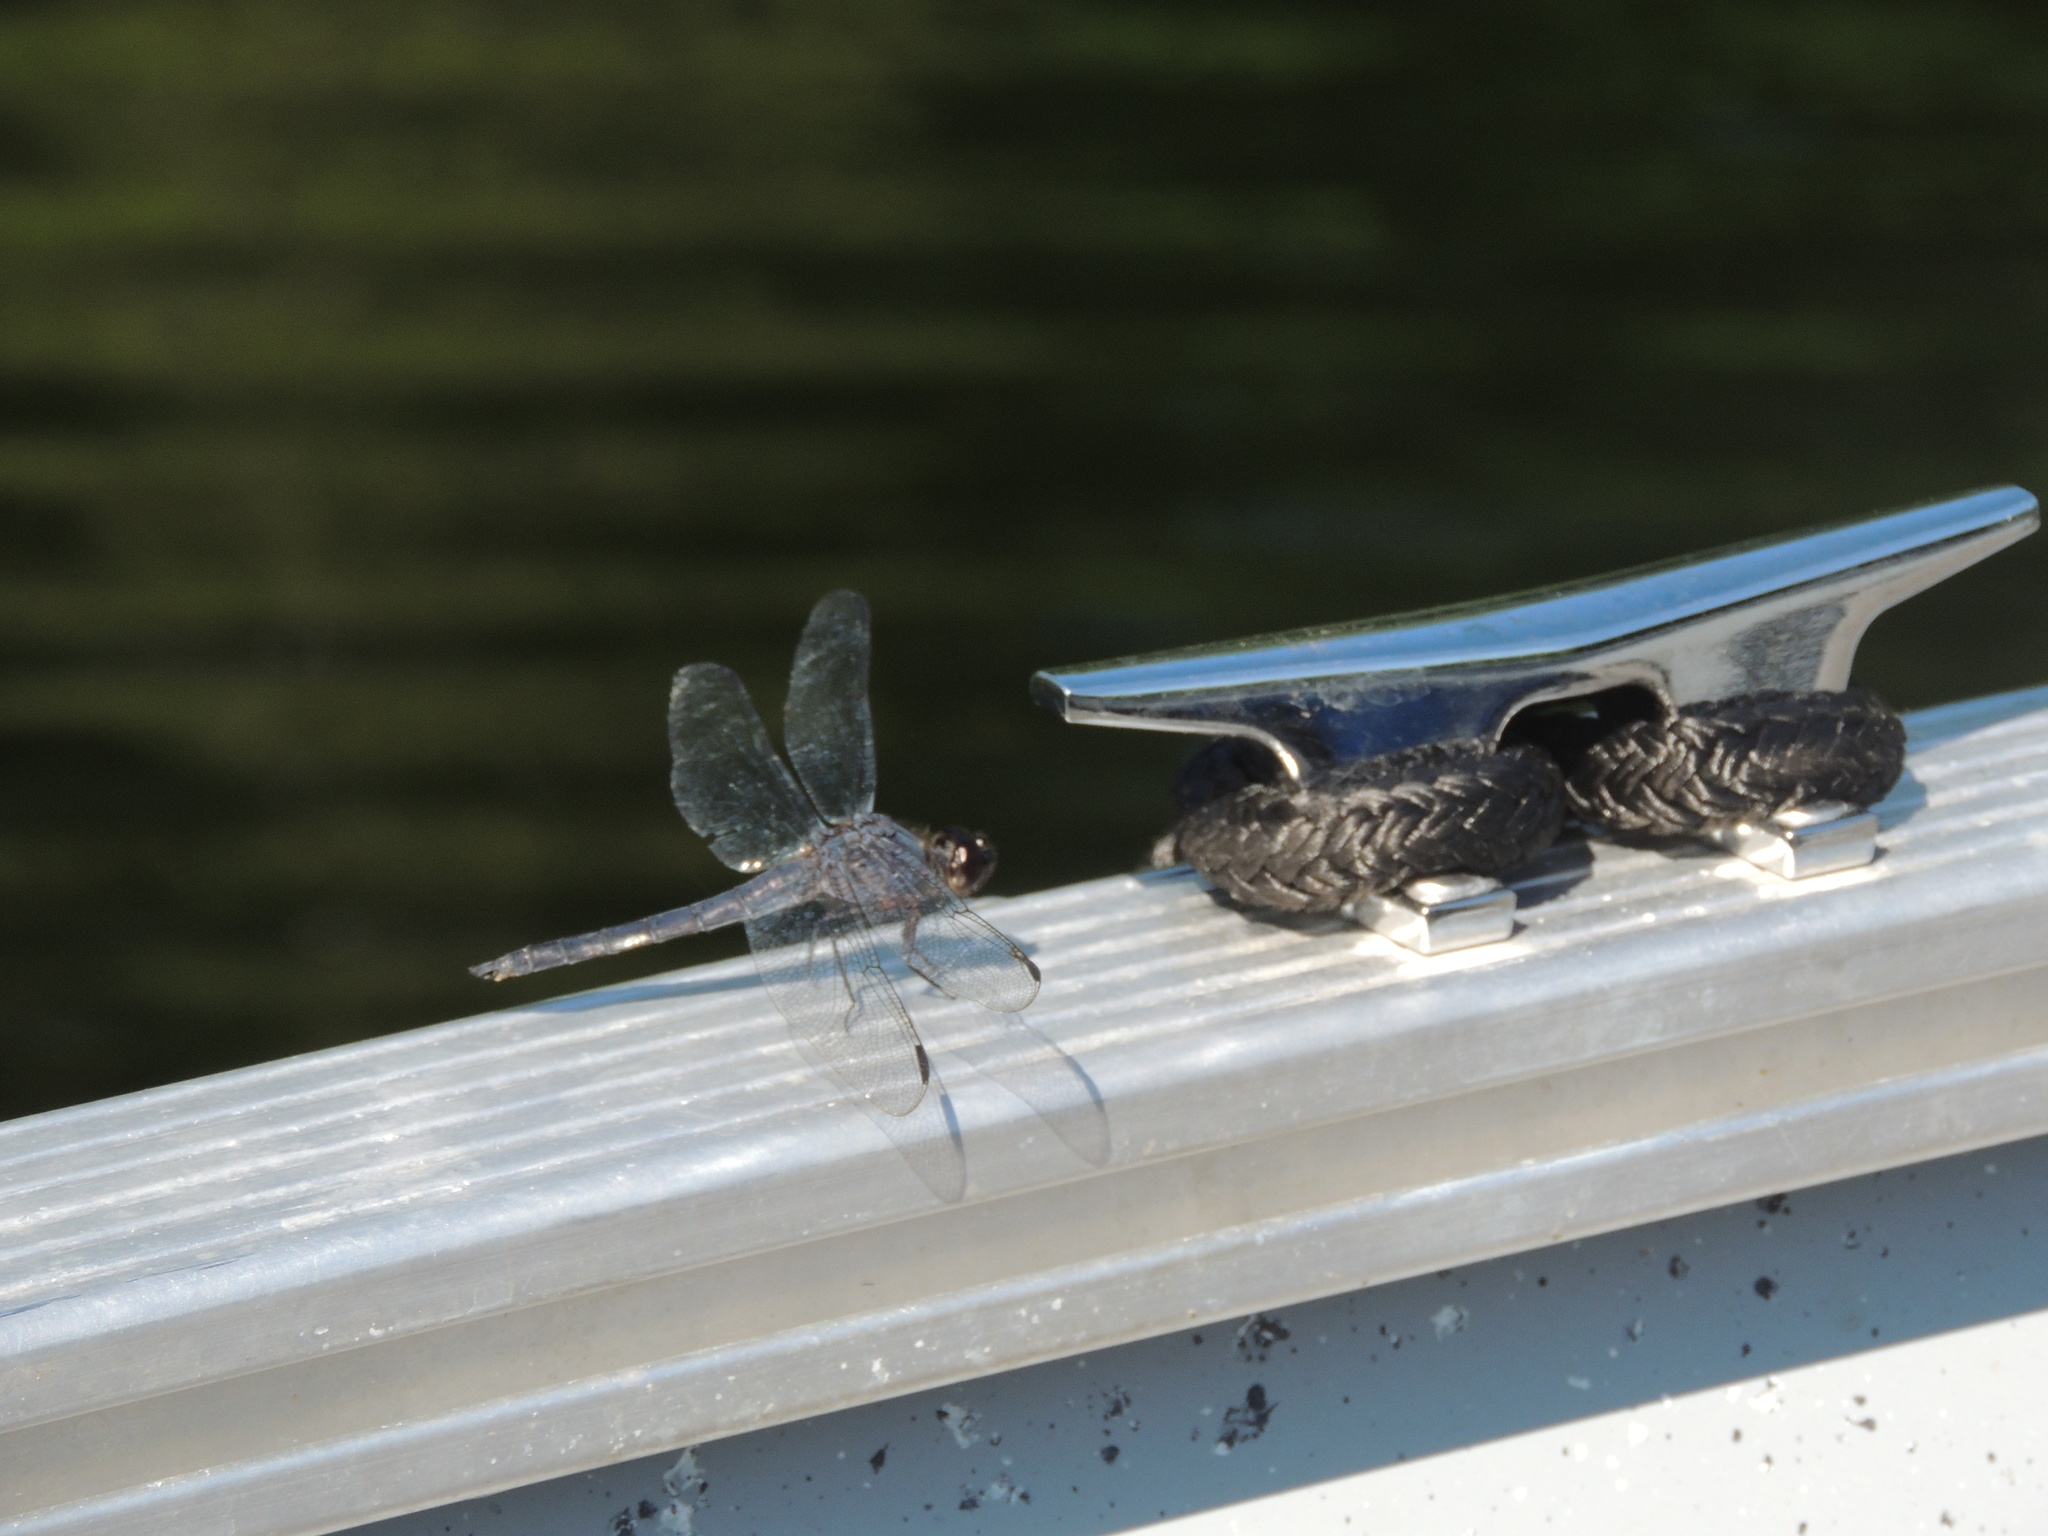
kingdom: Animalia
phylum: Arthropoda
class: Insecta
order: Odonata
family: Libellulidae
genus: Libellula
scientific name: Libellula incesta
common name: Slaty skimmer
